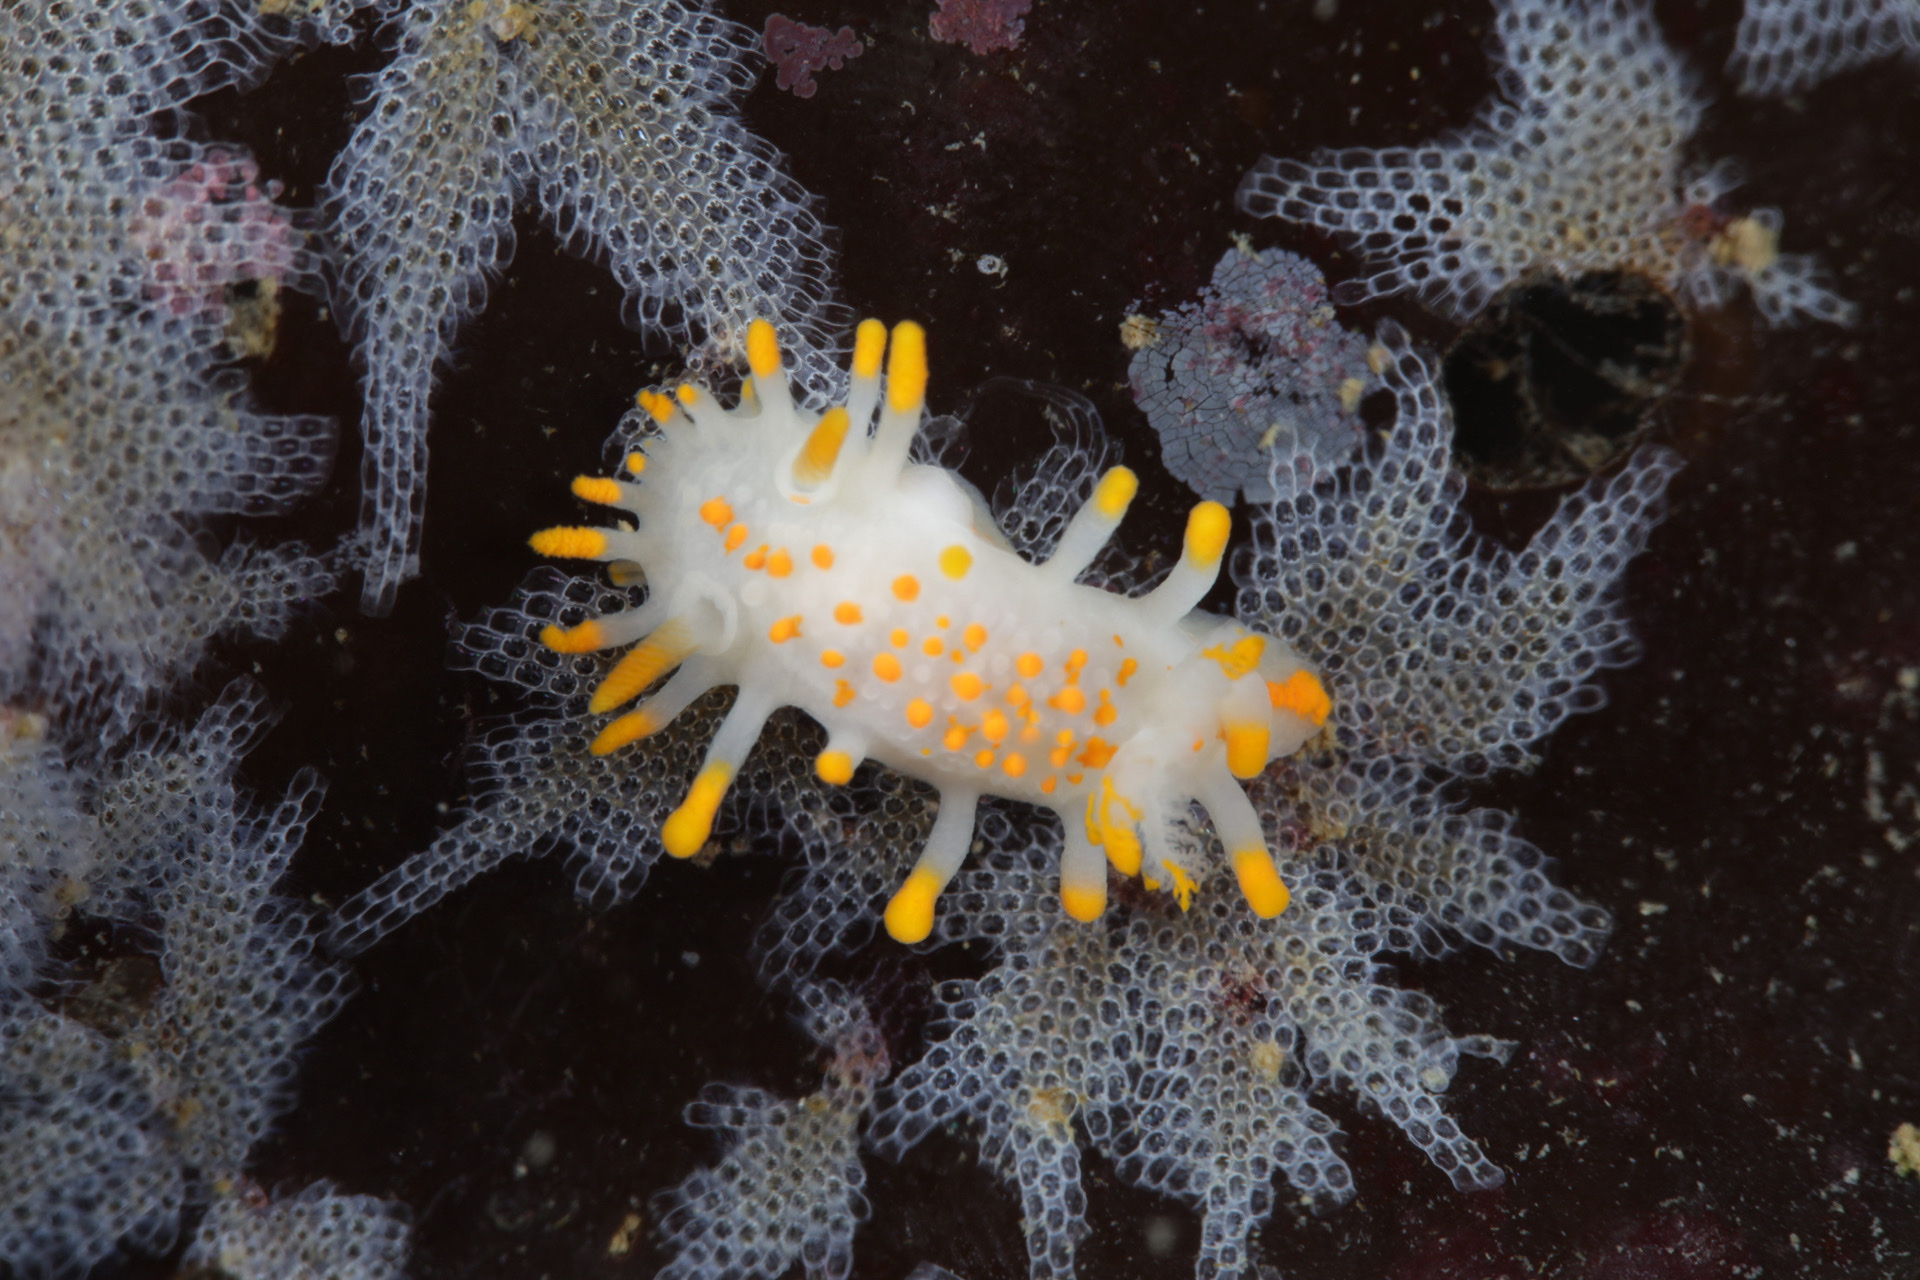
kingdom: Animalia
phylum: Mollusca
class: Gastropoda
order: Nudibranchia
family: Polyceridae
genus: Limacia
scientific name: Limacia clavigera
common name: Orange-clubbed sea slug
